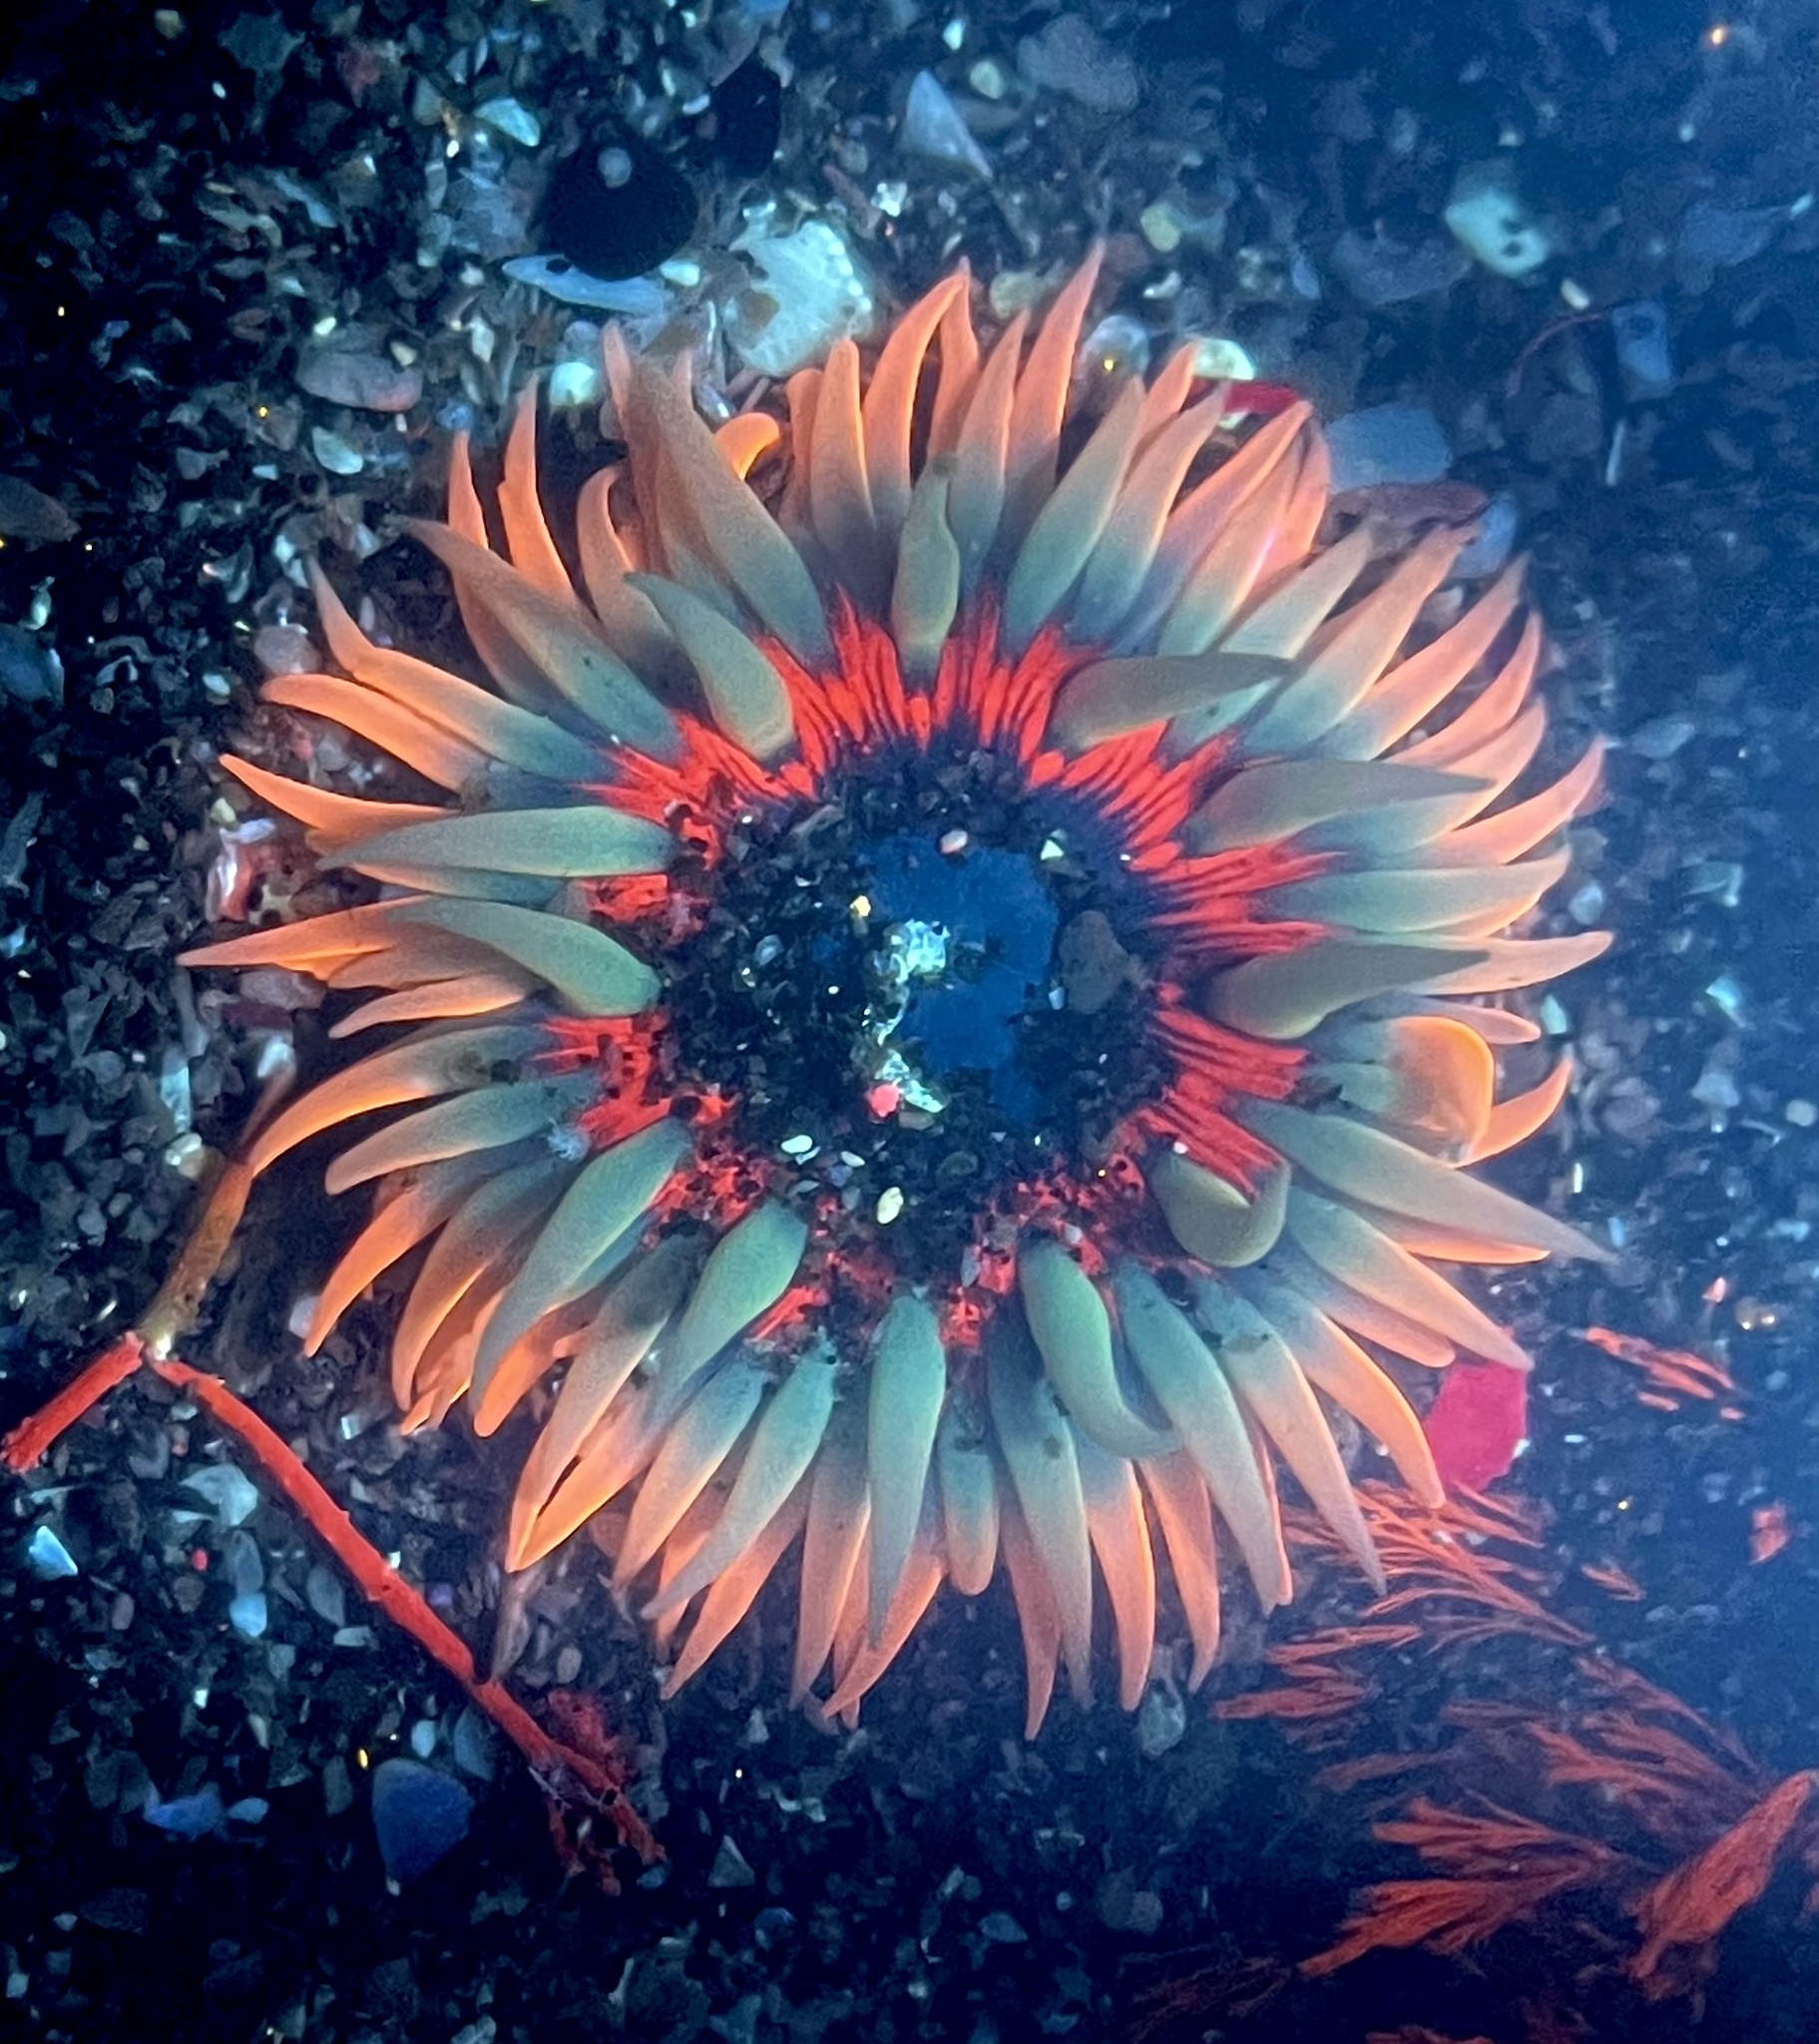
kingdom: Animalia
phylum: Cnidaria
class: Anthozoa
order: Actiniaria
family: Actiniidae
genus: Anthopleura
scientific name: Anthopleura artemisia
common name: Buried sea anemone
